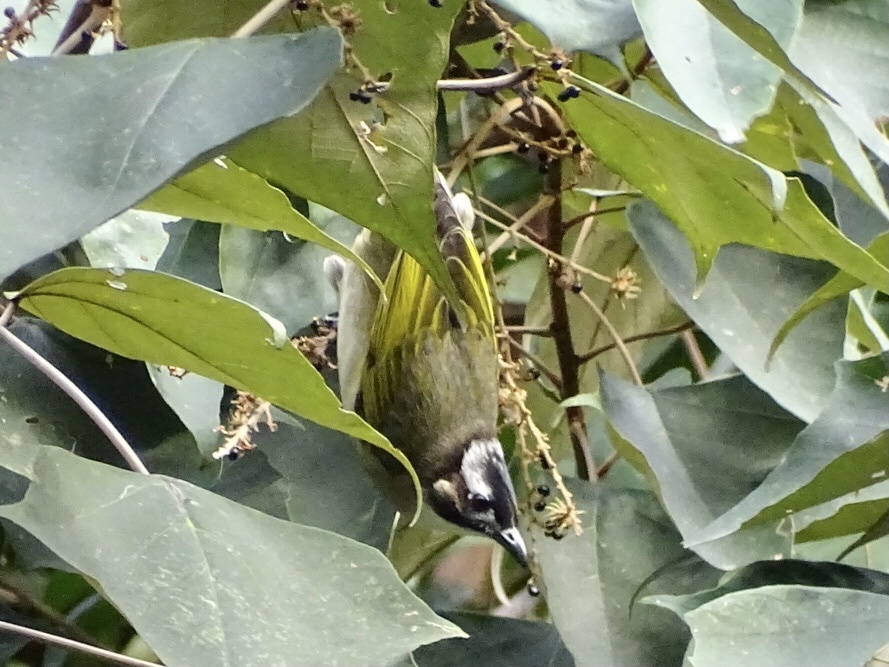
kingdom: Animalia
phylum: Chordata
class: Aves
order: Passeriformes
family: Pycnonotidae
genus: Pycnonotus
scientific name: Pycnonotus sinensis
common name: Light-vented bulbul
